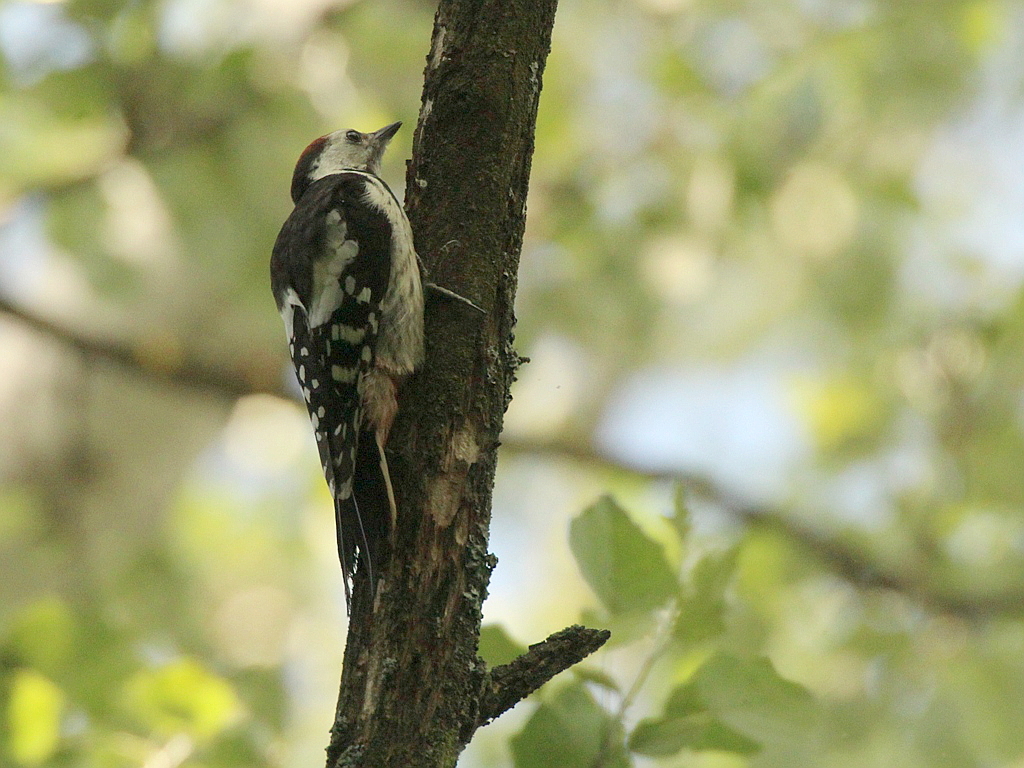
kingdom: Animalia
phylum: Chordata
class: Aves
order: Piciformes
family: Picidae
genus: Dendrocoptes
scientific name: Dendrocoptes medius
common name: Middle spotted woodpecker
